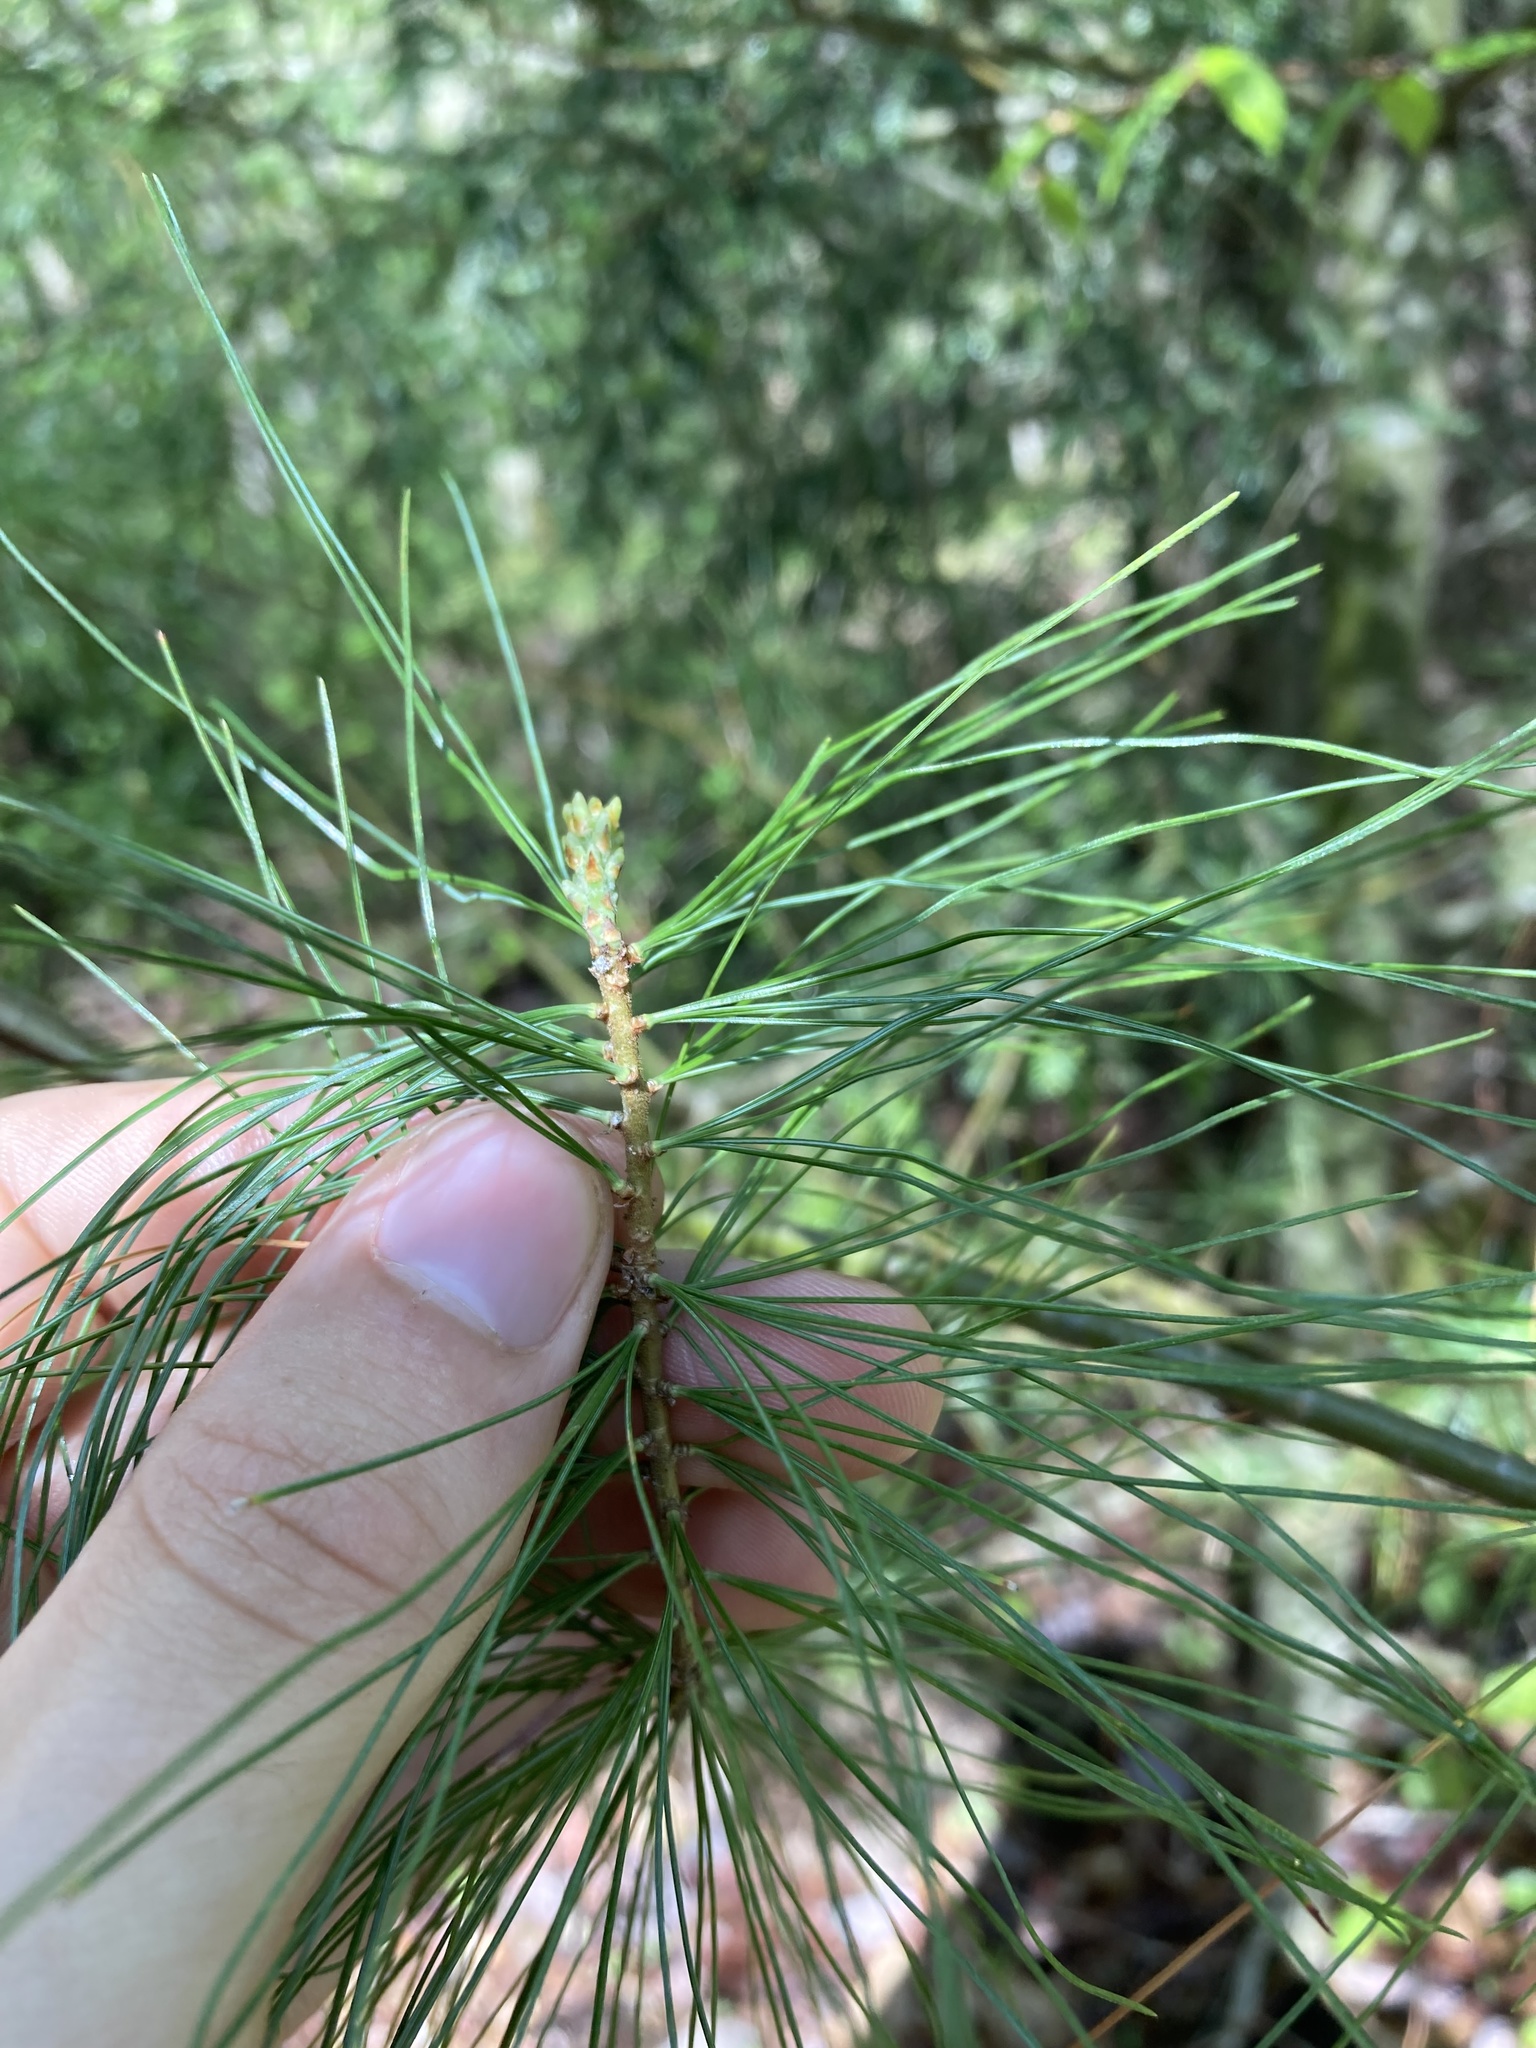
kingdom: Plantae
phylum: Tracheophyta
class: Pinopsida
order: Pinales
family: Pinaceae
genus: Pinus
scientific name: Pinus strobus
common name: Weymouth pine
